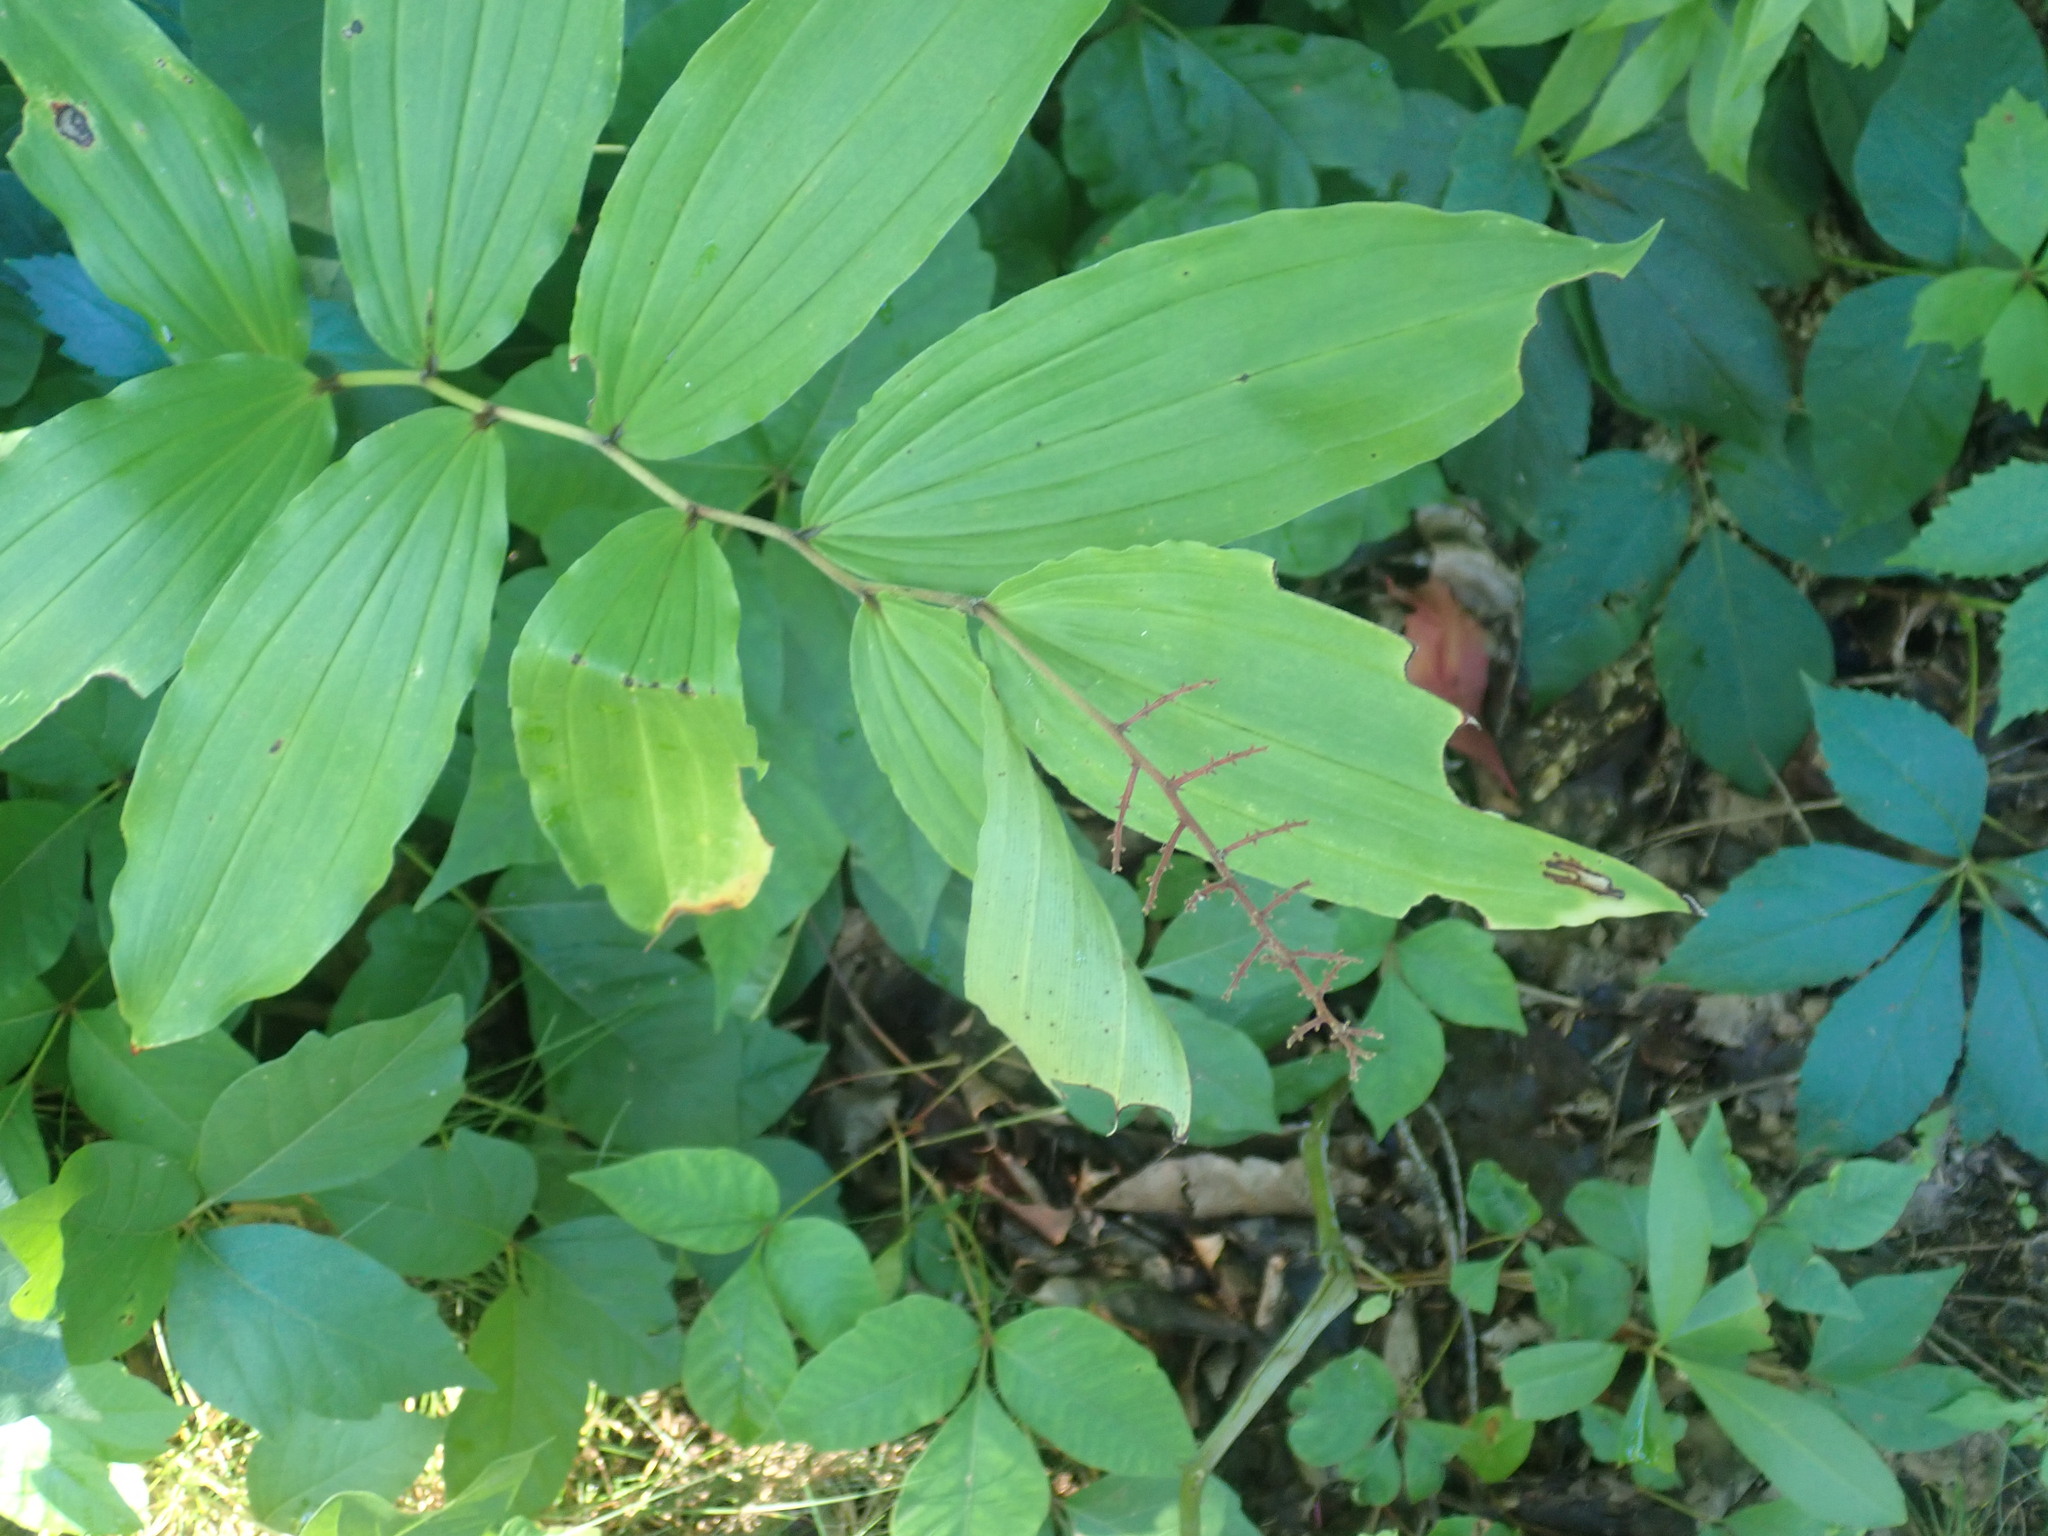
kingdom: Plantae
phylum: Tracheophyta
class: Liliopsida
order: Asparagales
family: Asparagaceae
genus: Maianthemum
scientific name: Maianthemum racemosum
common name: False spikenard
